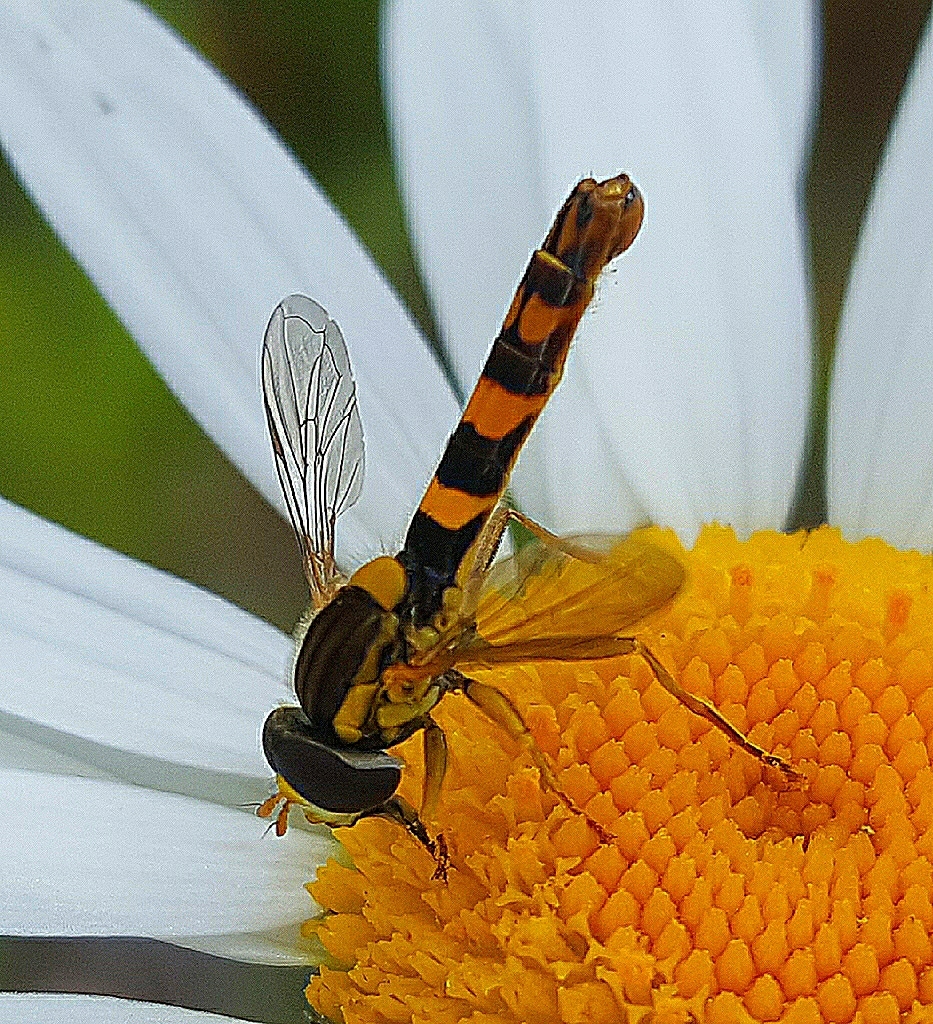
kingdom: Animalia
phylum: Arthropoda
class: Insecta
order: Diptera
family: Syrphidae
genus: Sphaerophoria
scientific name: Sphaerophoria scripta
